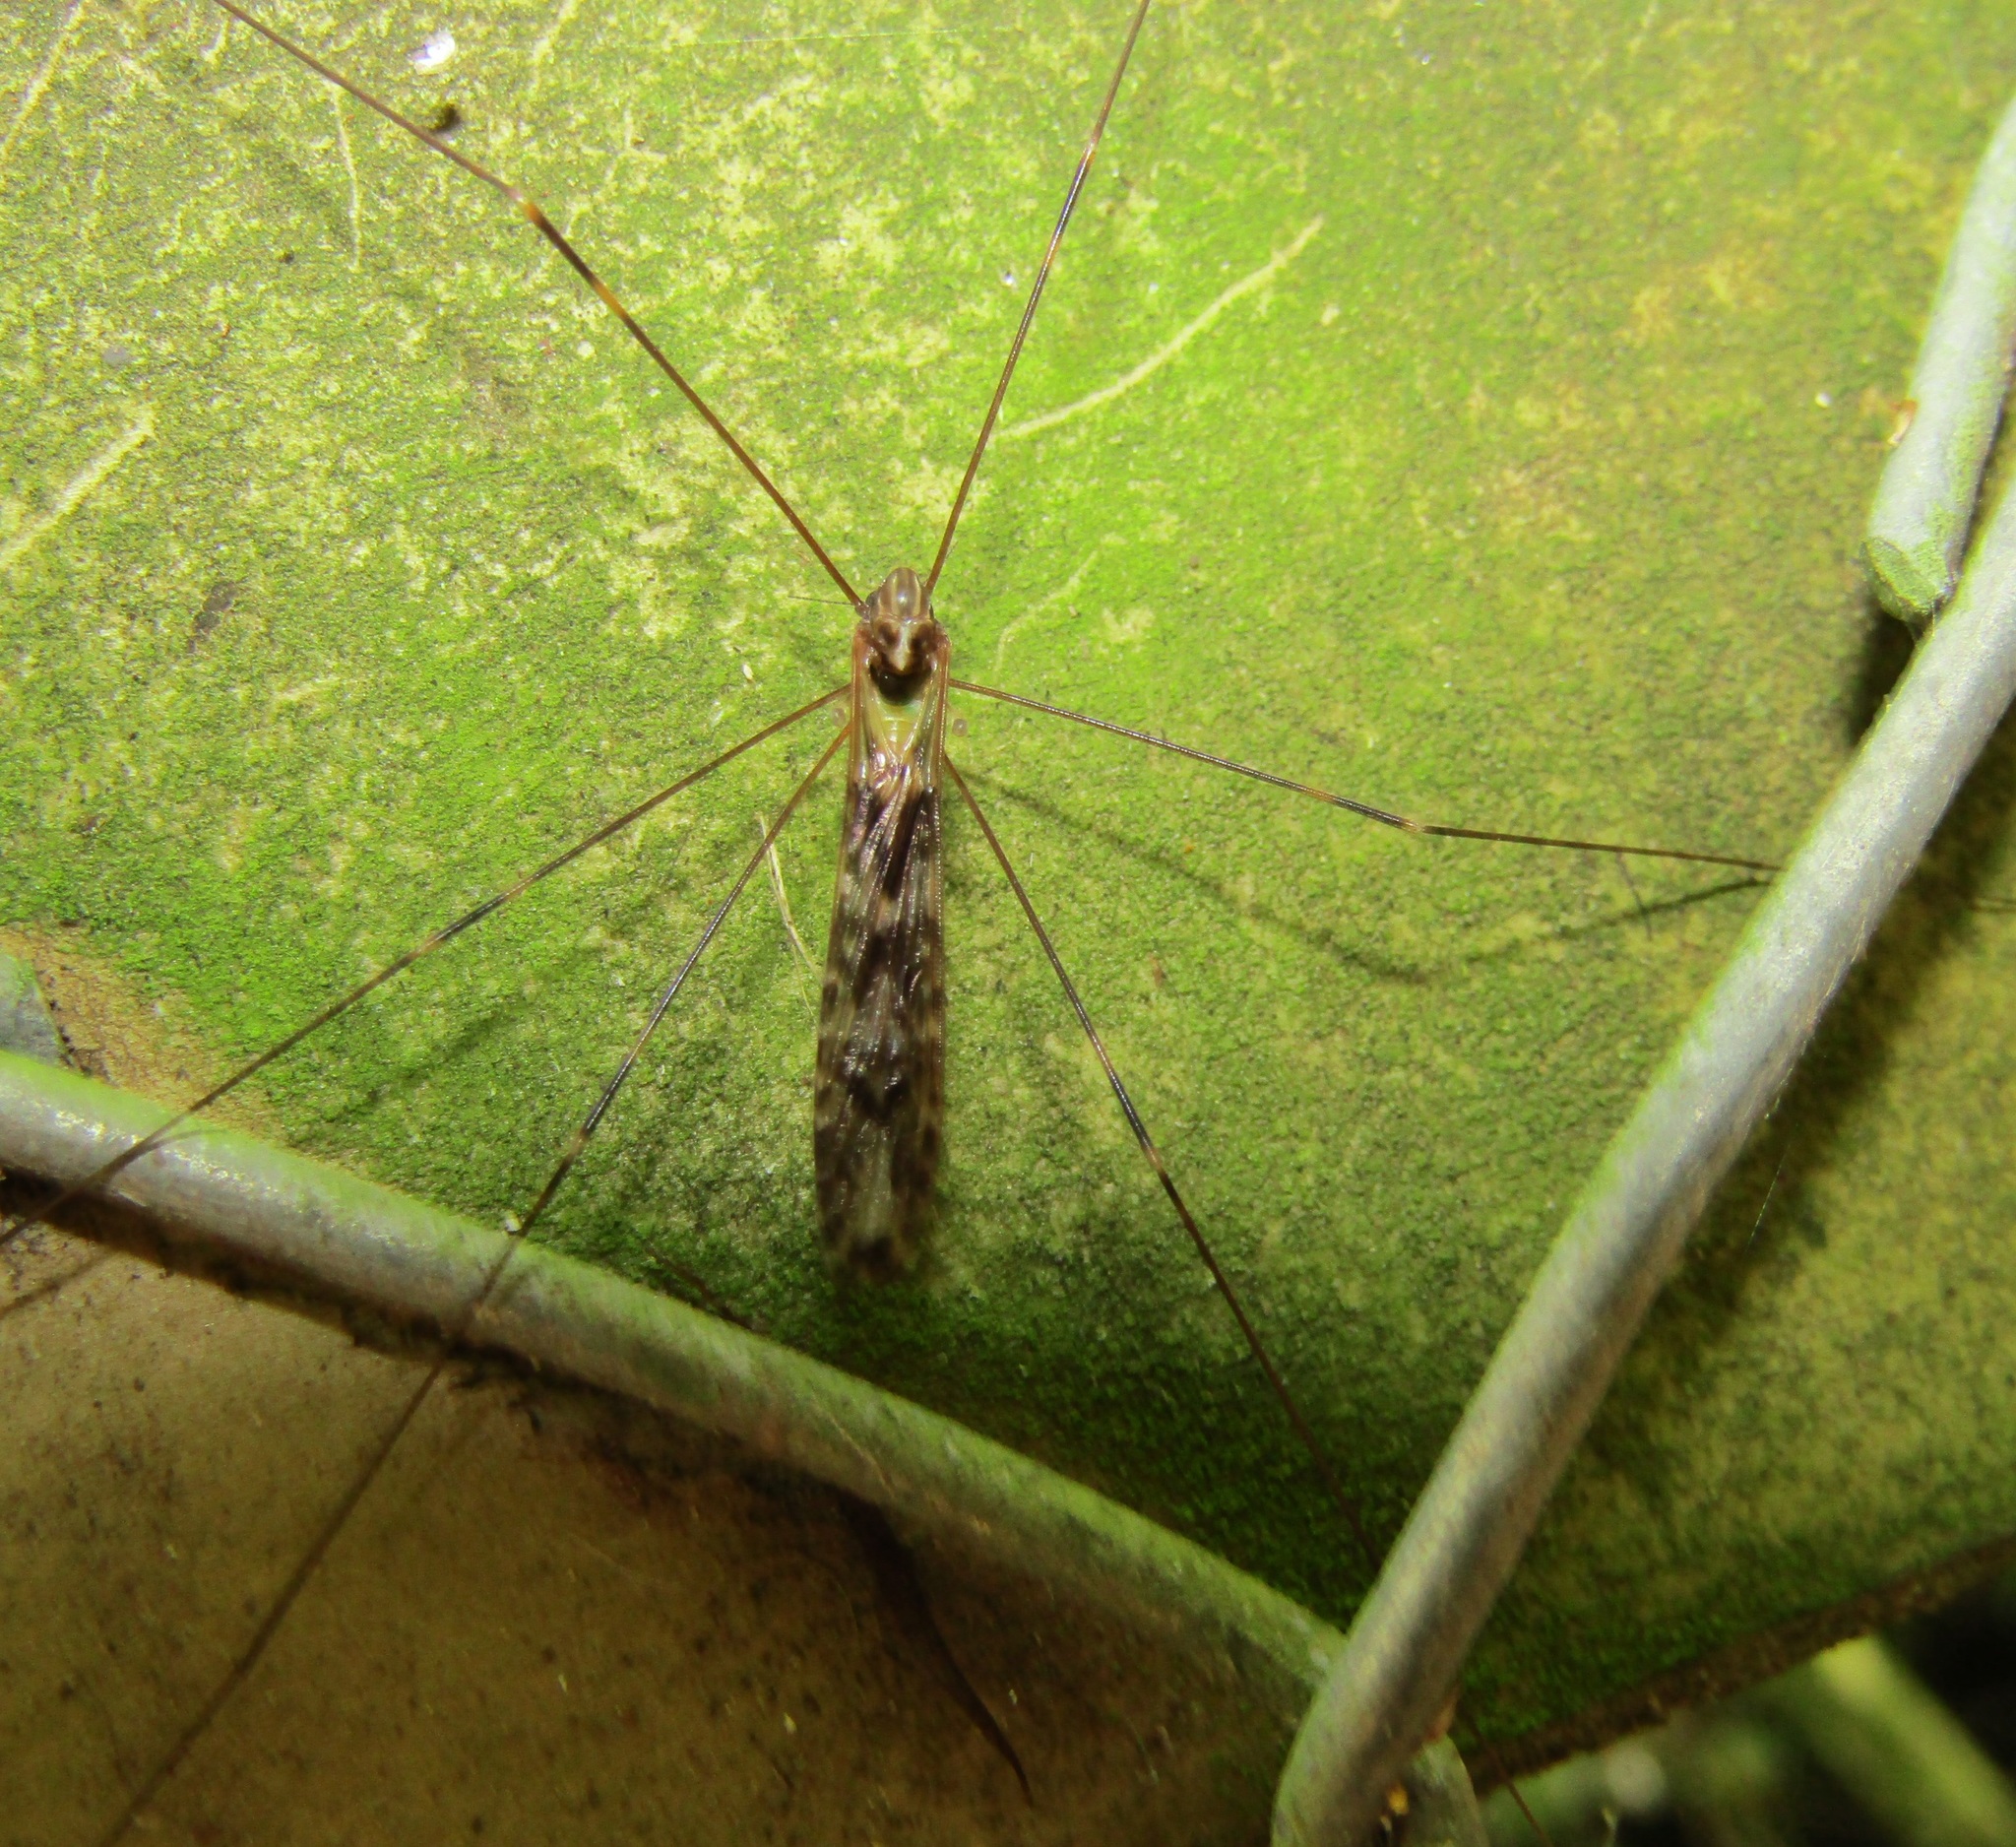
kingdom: Animalia
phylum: Arthropoda
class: Insecta
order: Diptera
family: Limoniidae
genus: Discobola
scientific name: Discobola dohrni
